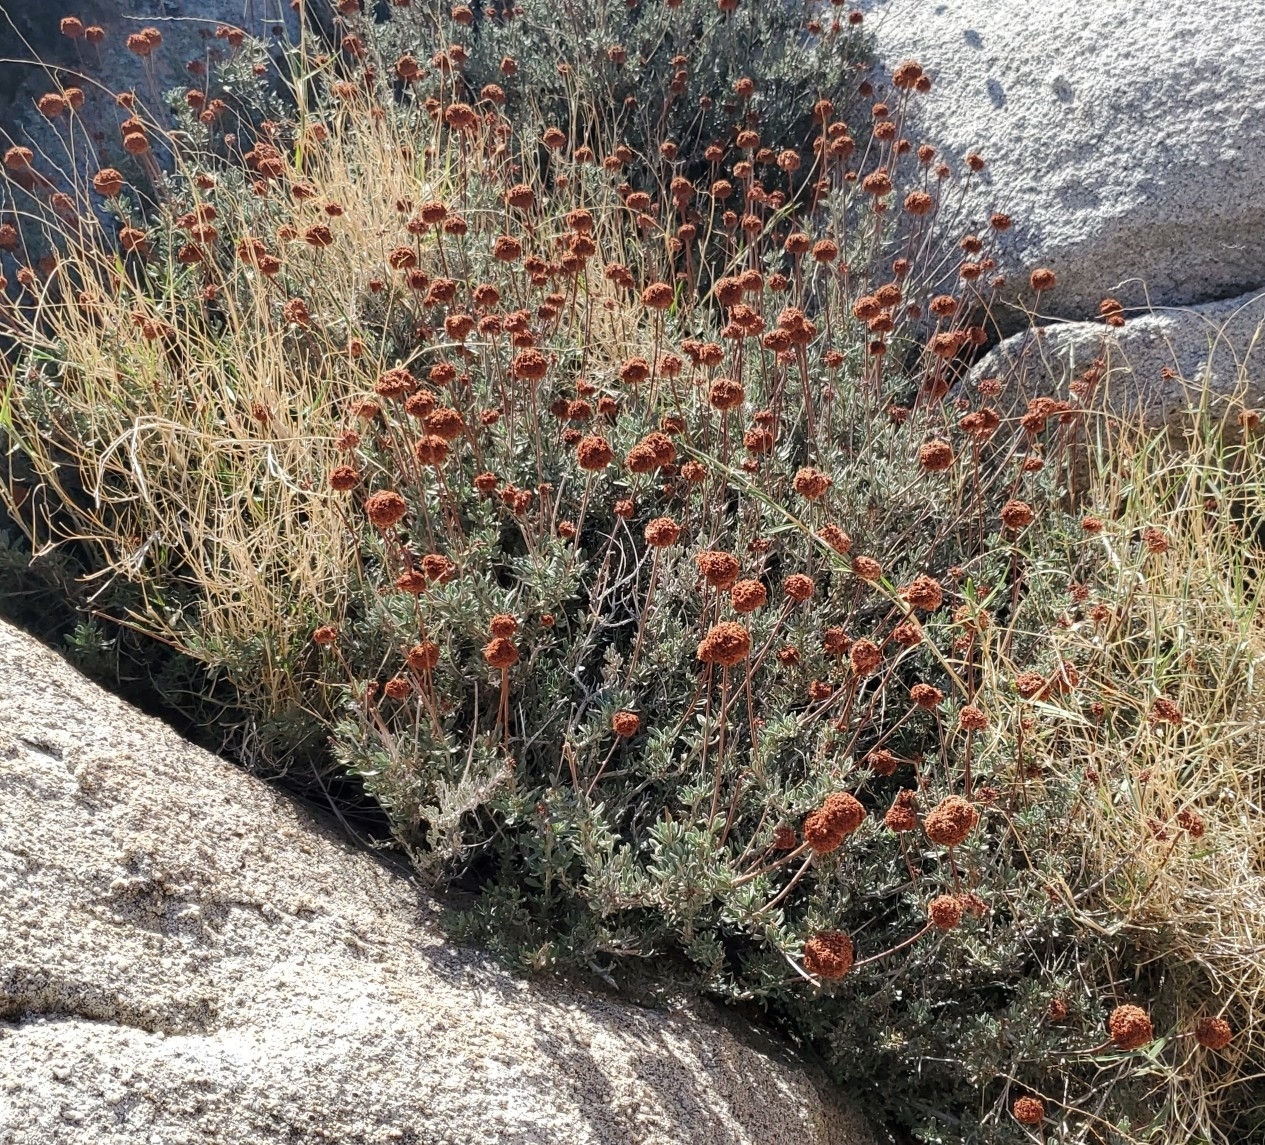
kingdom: Plantae
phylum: Tracheophyta
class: Magnoliopsida
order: Caryophyllales
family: Polygonaceae
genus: Eriogonum
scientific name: Eriogonum fasciculatum
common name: California wild buckwheat
